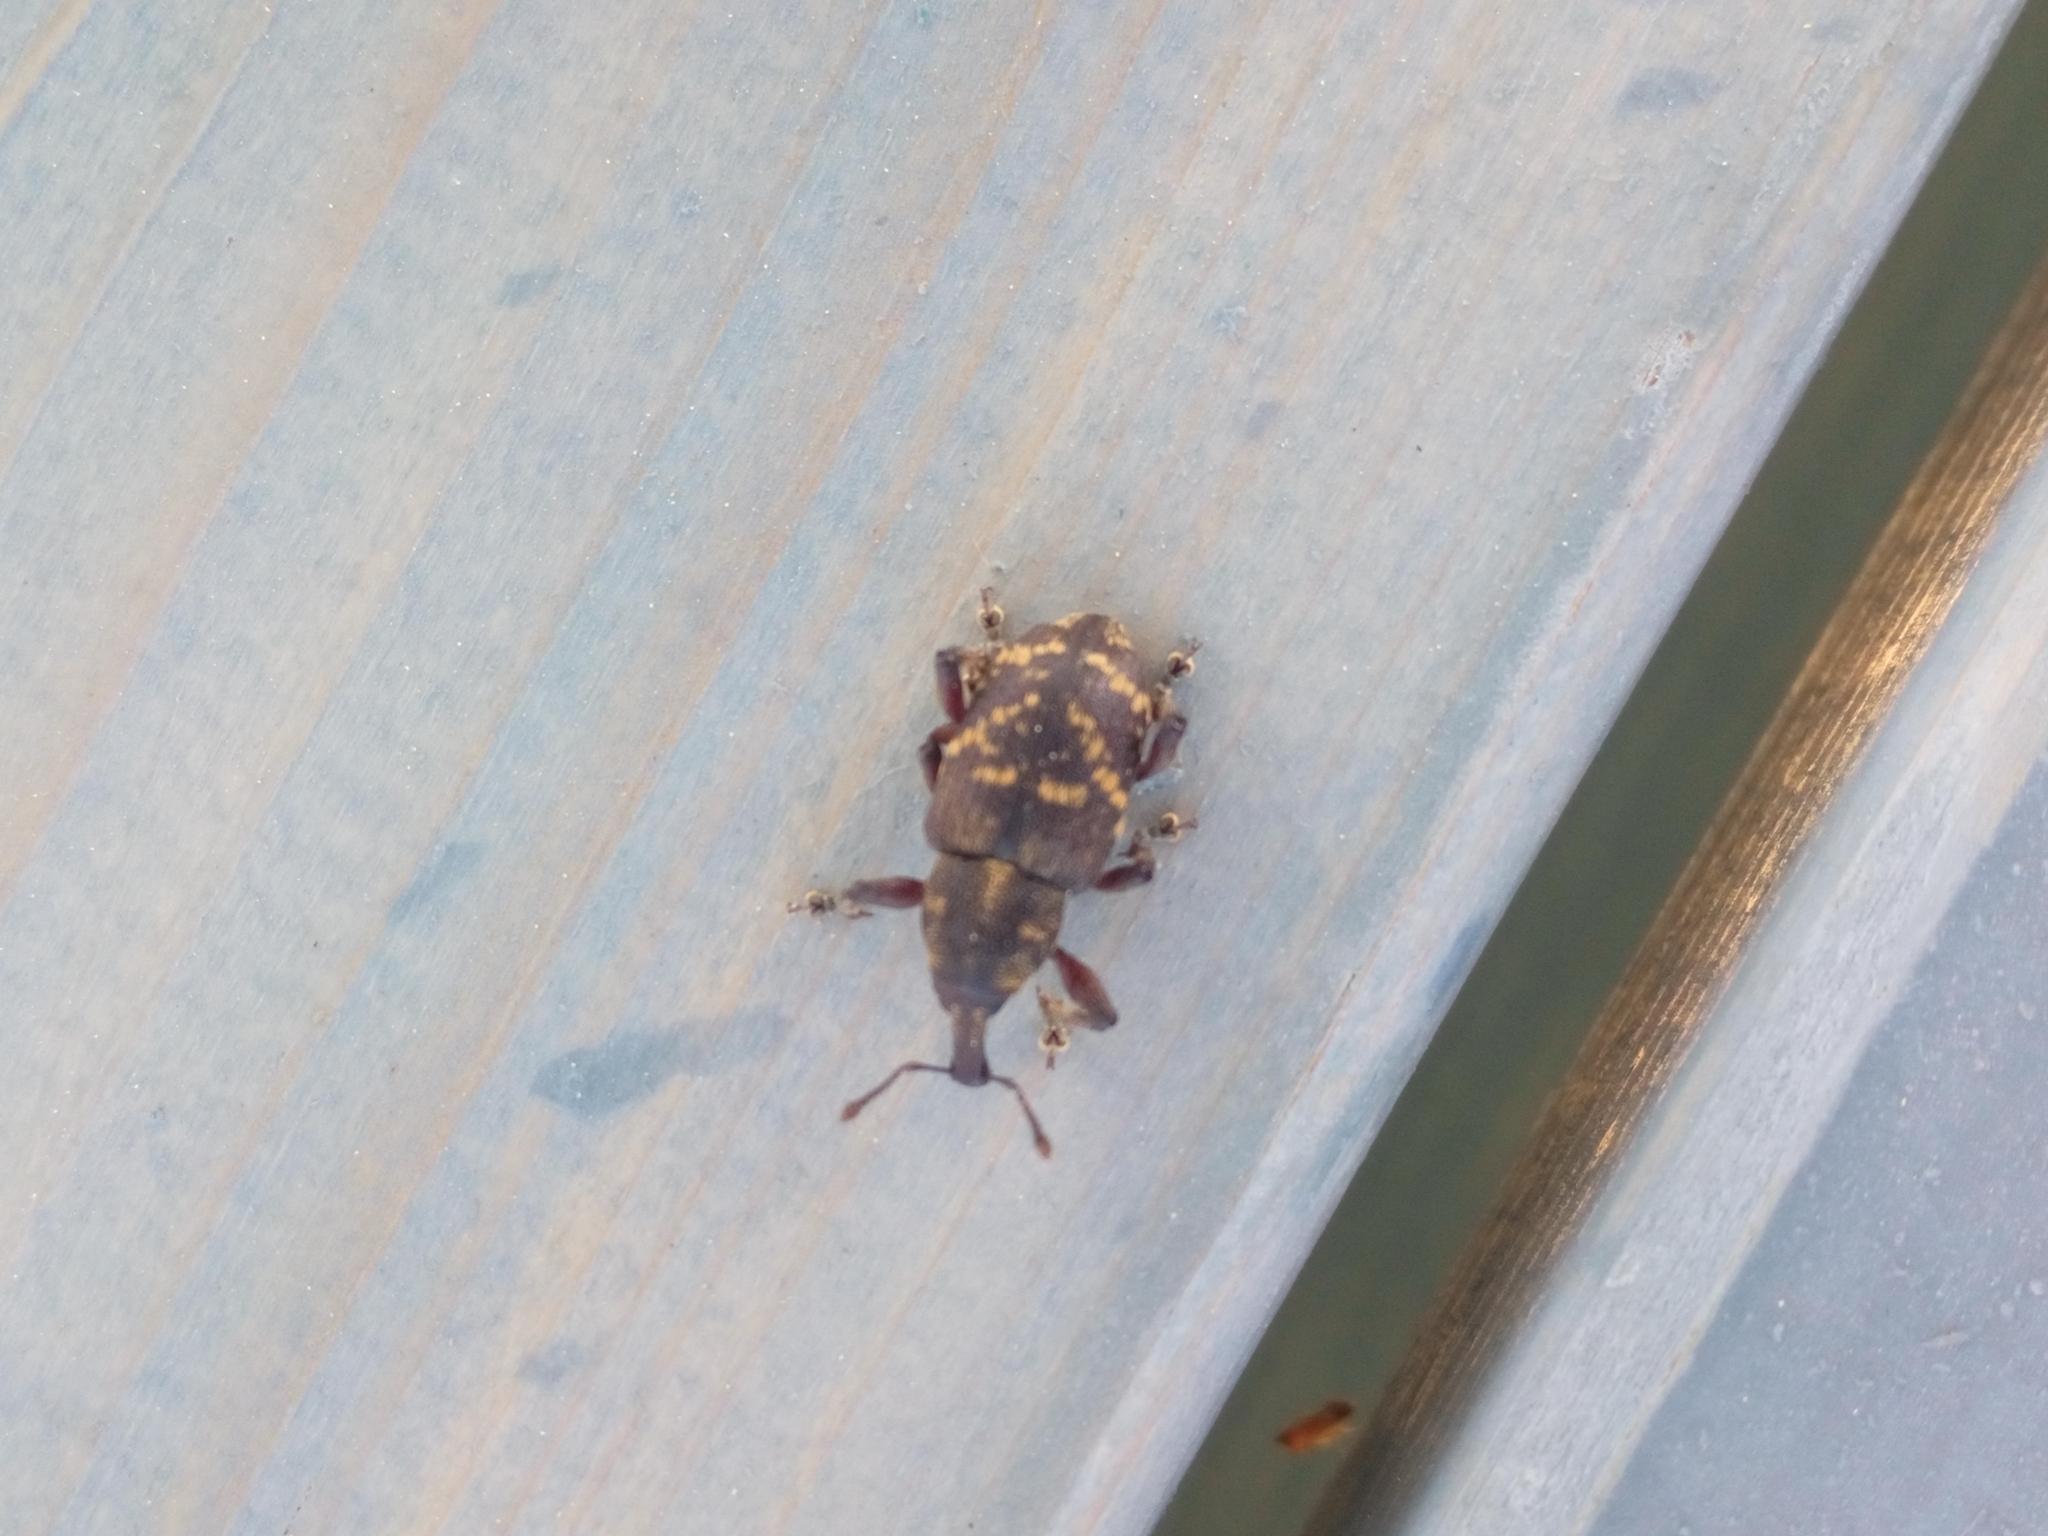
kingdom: Animalia
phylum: Arthropoda
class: Insecta
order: Coleoptera
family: Curculionidae
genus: Hylobius
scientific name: Hylobius abietis
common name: Large pine weevil
